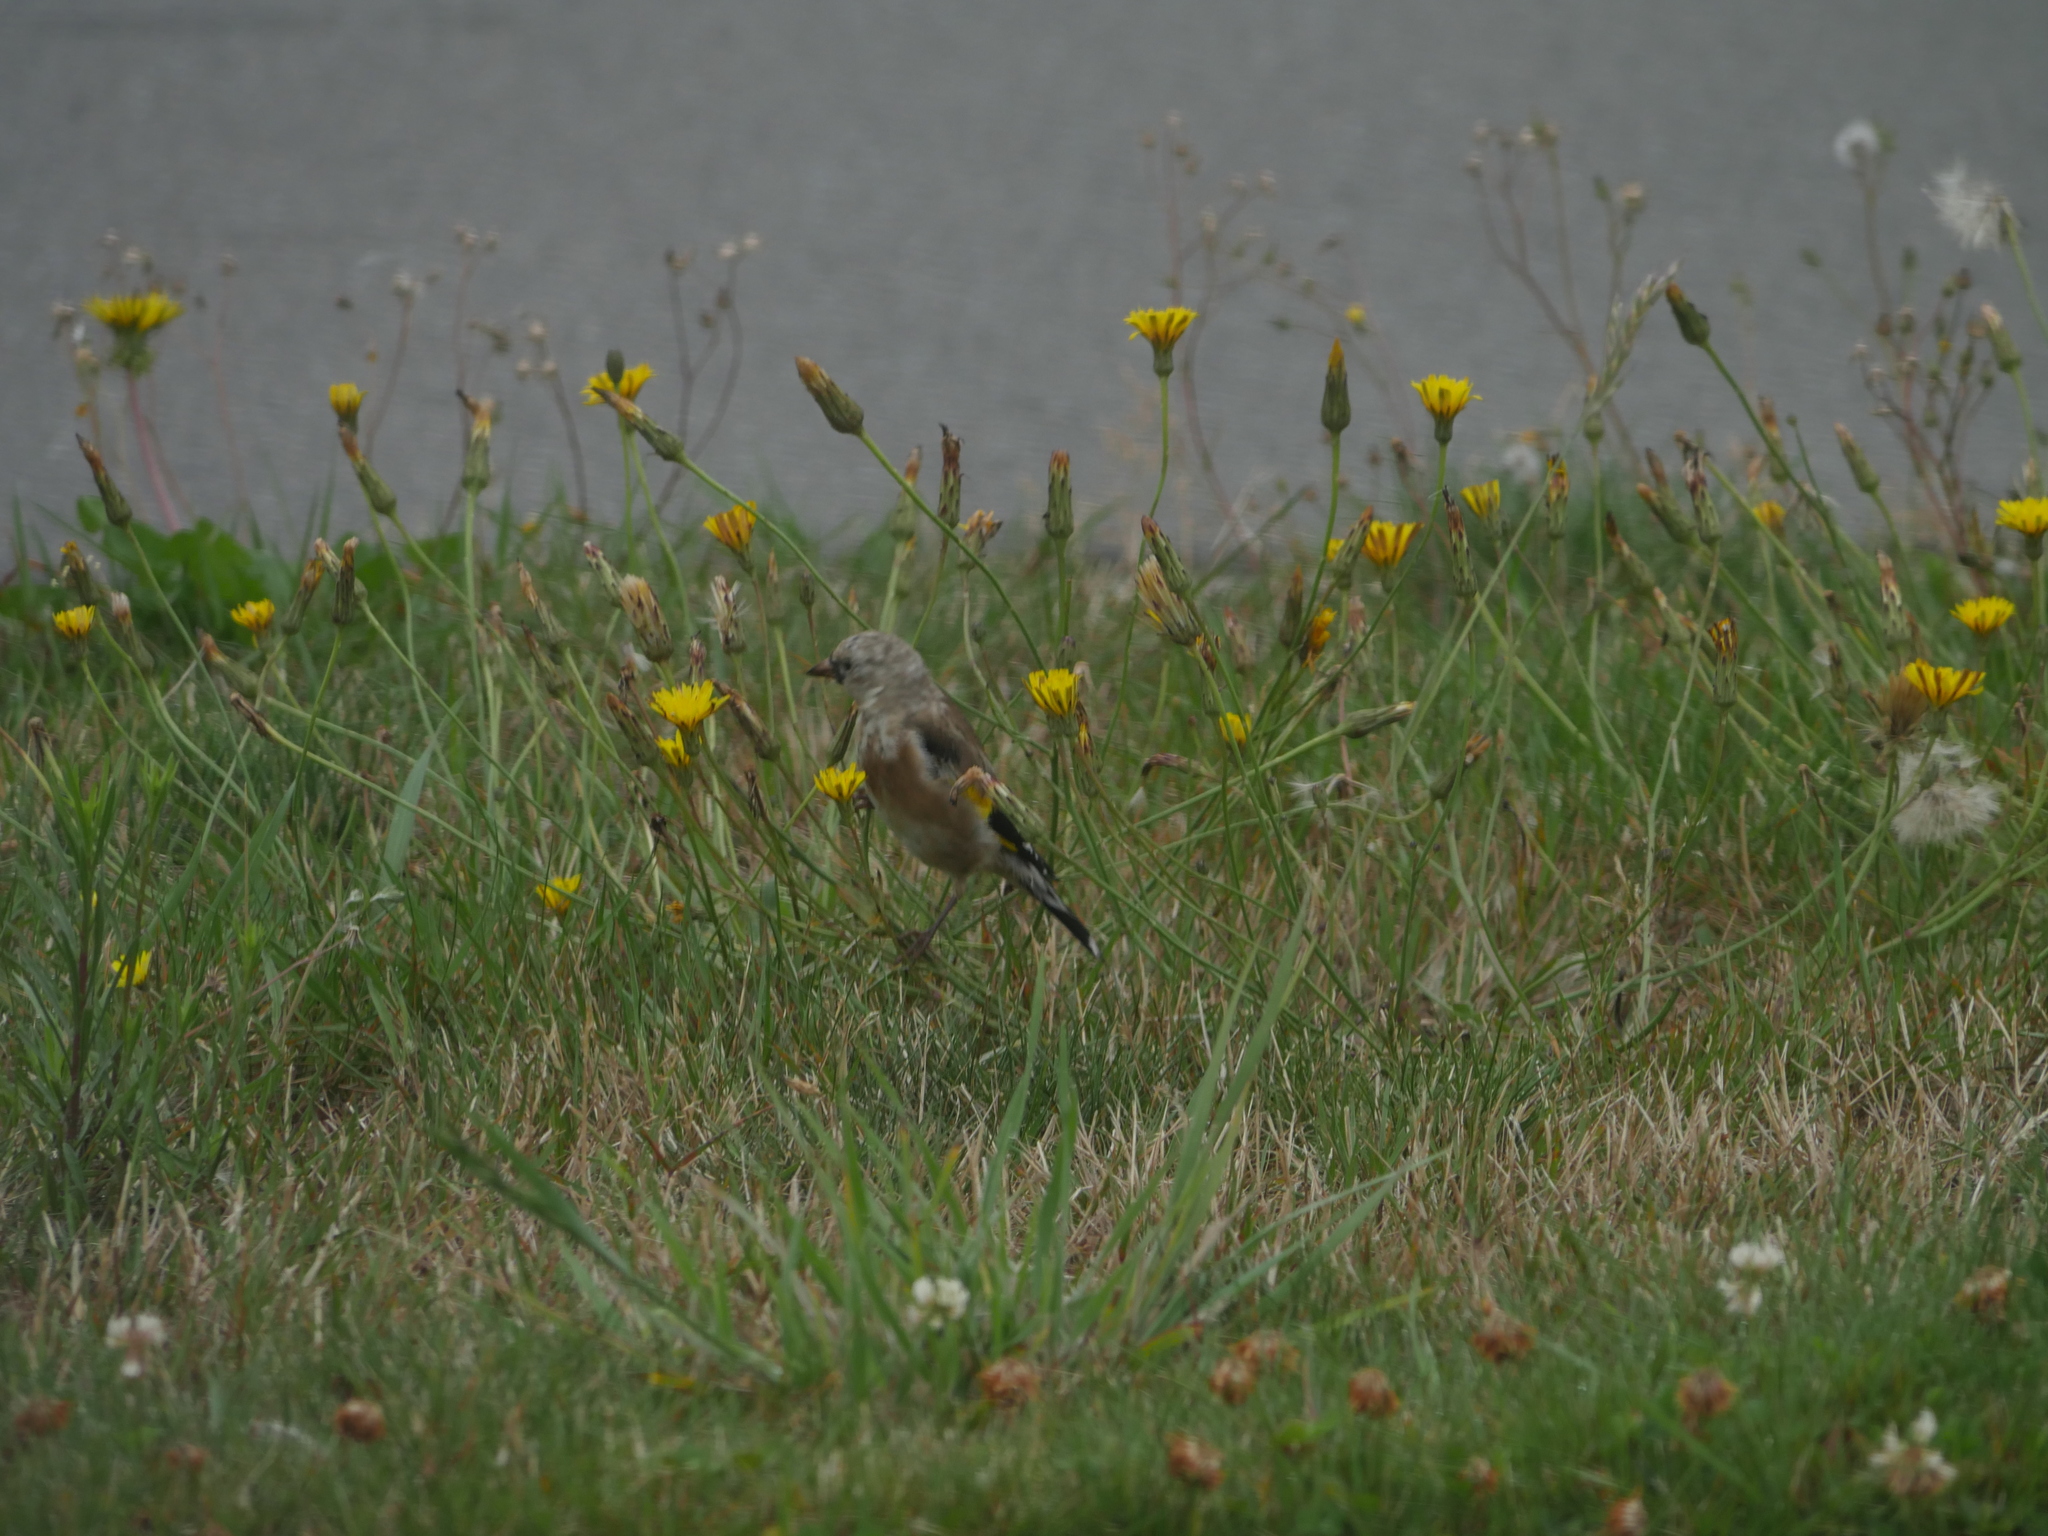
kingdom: Animalia
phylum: Chordata
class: Aves
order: Passeriformes
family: Fringillidae
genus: Carduelis
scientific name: Carduelis carduelis
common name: European goldfinch
